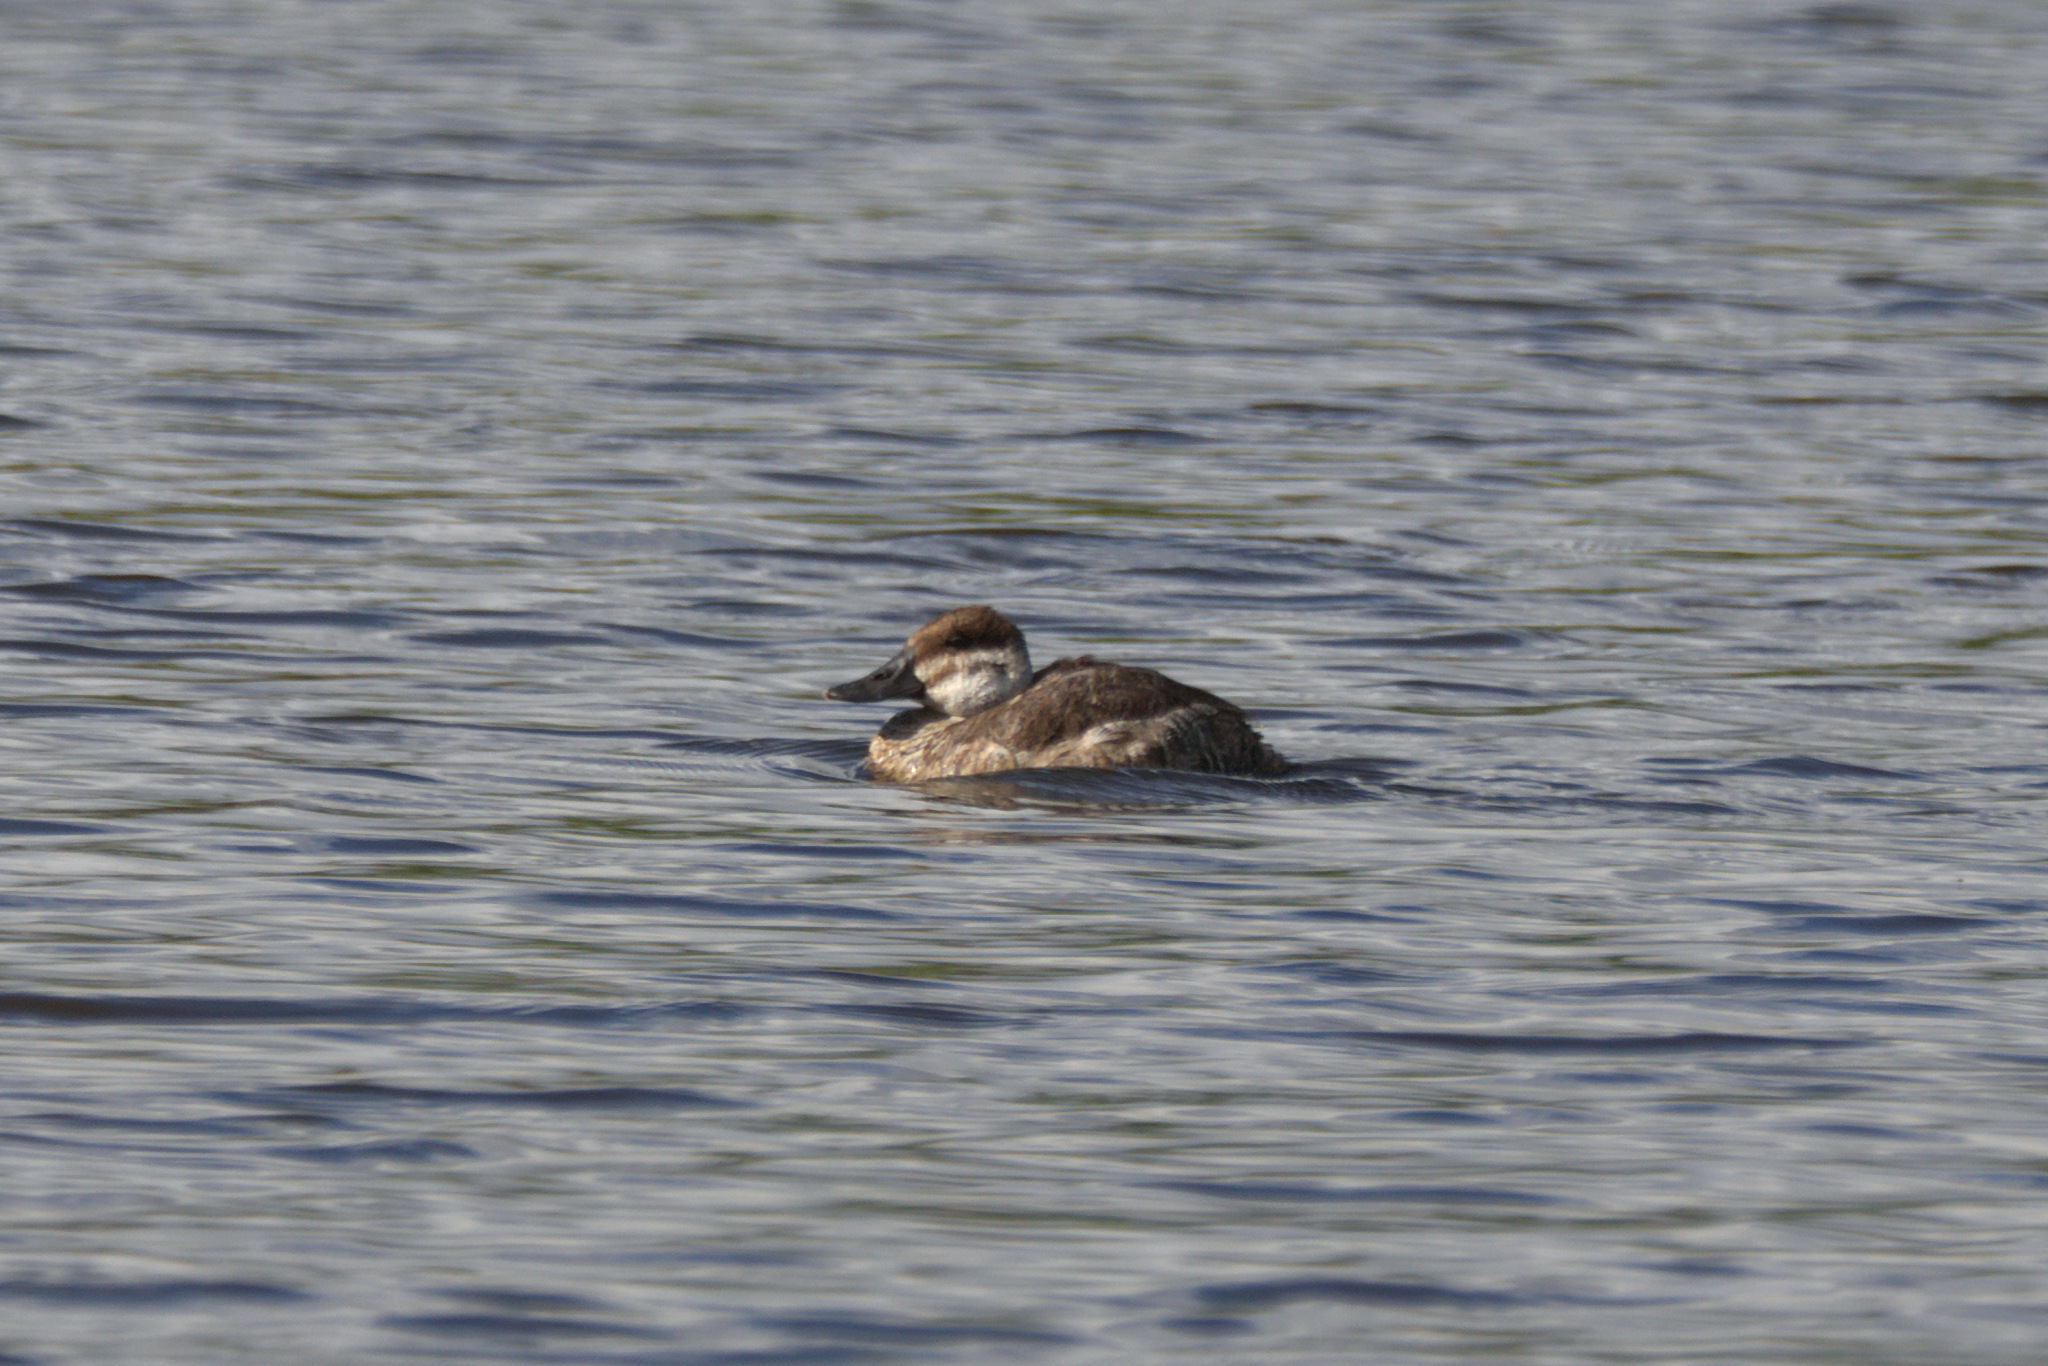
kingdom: Animalia
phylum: Chordata
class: Aves
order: Anseriformes
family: Anatidae
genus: Oxyura
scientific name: Oxyura jamaicensis
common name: Ruddy duck
